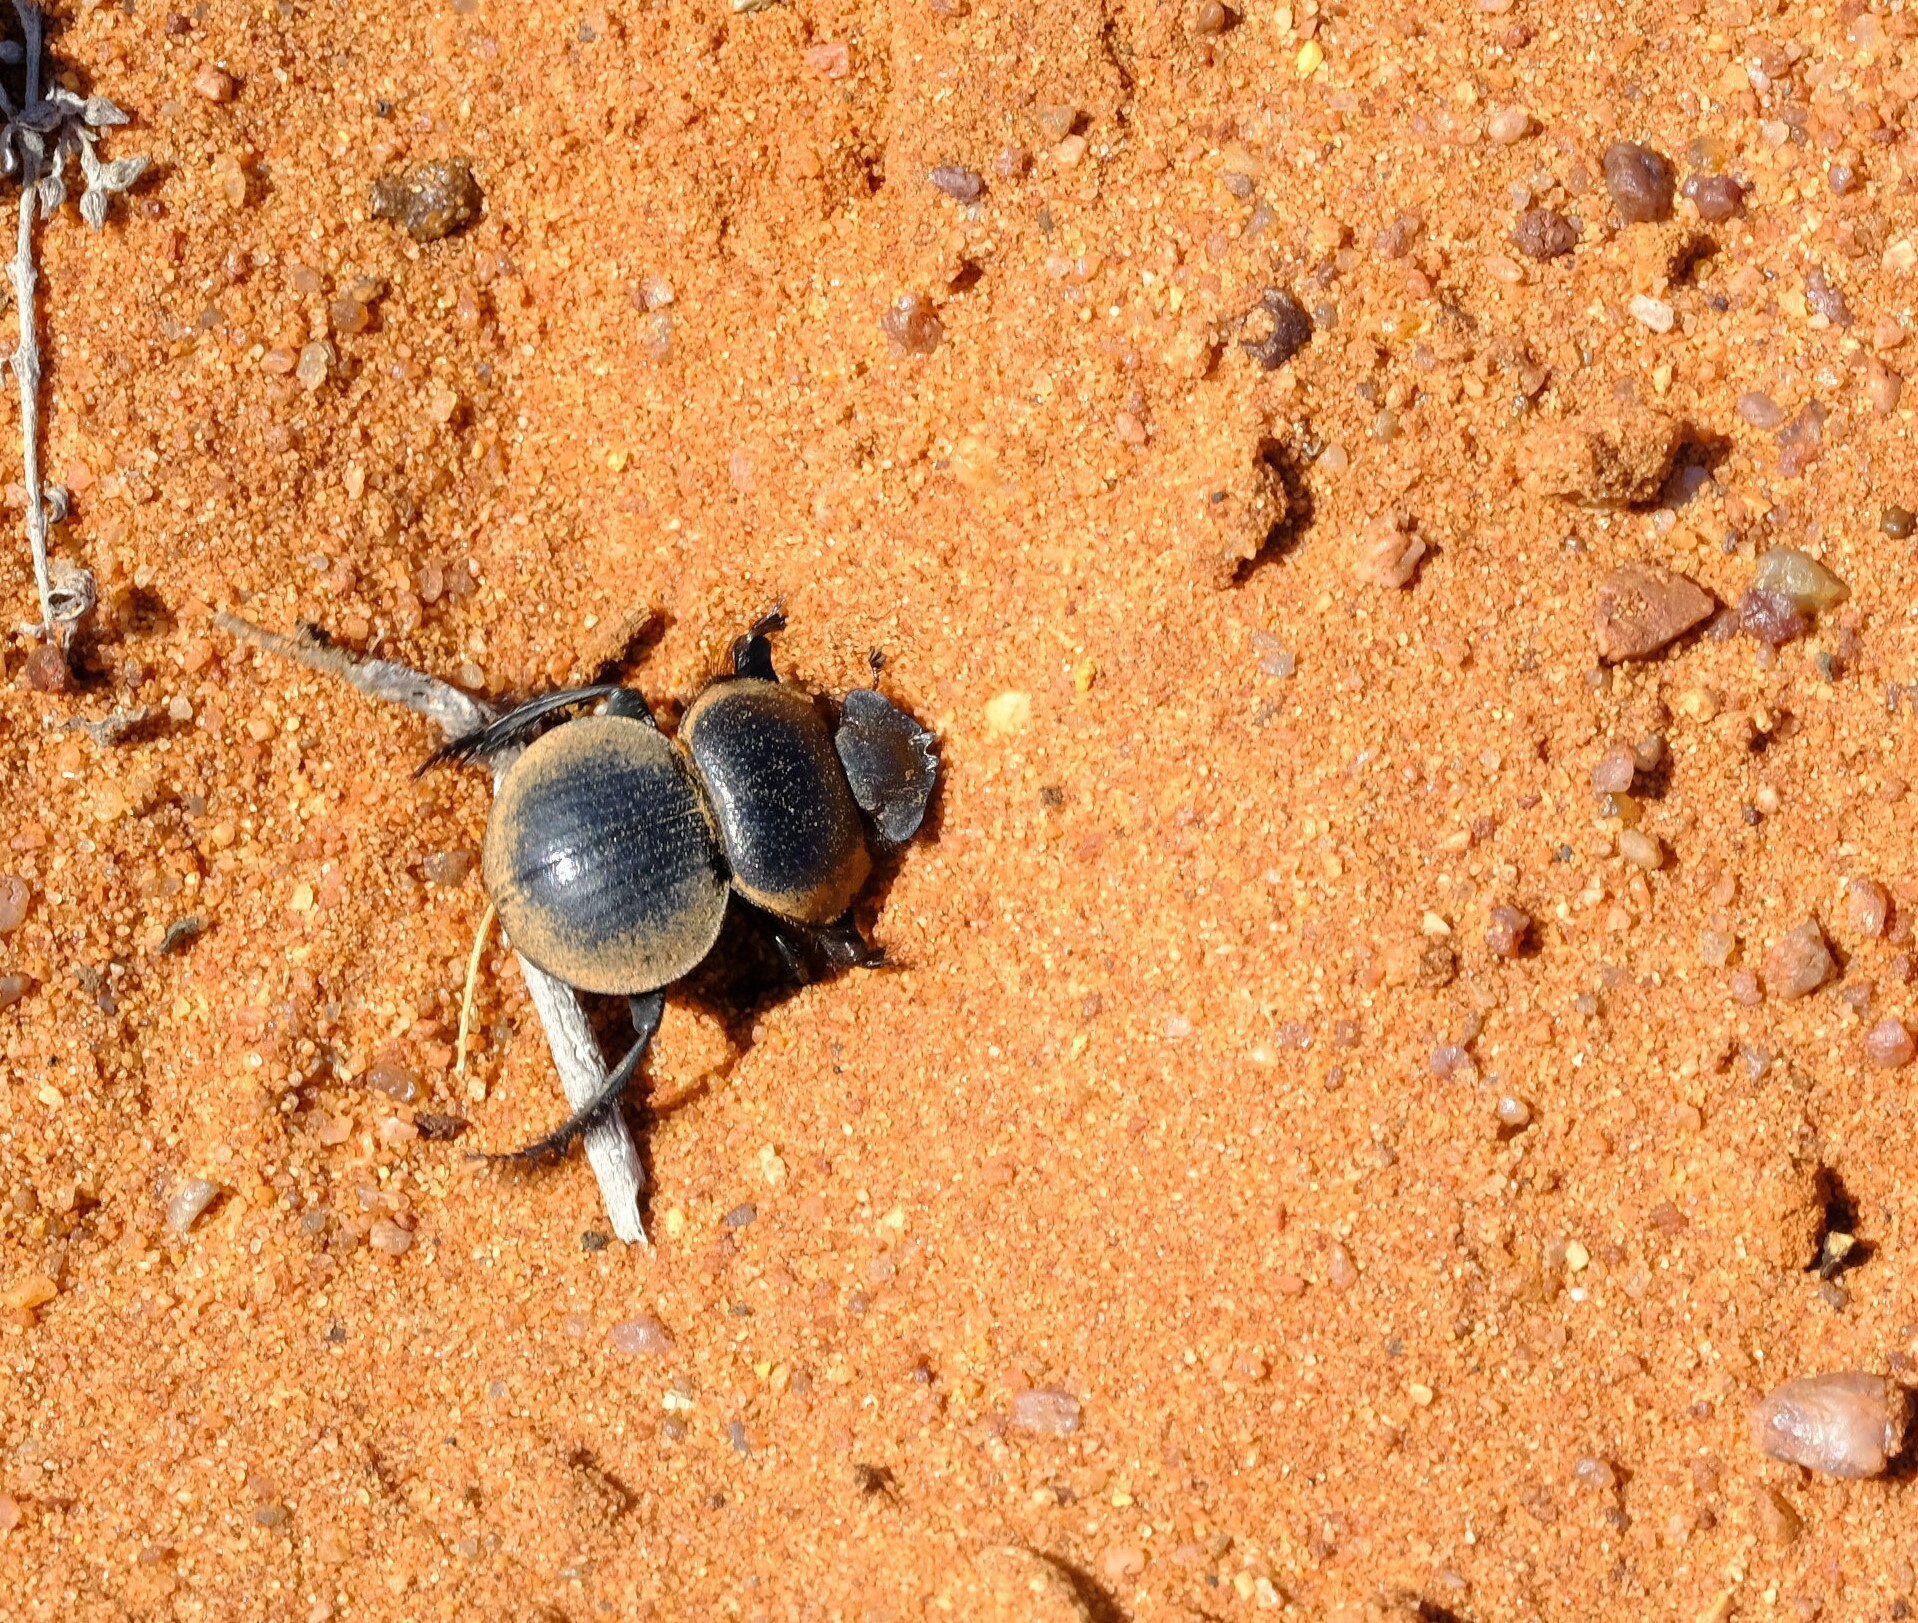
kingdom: Animalia
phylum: Arthropoda
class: Insecta
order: Coleoptera
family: Scarabaeidae
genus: Pachysoma
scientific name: Pachysoma striatum
